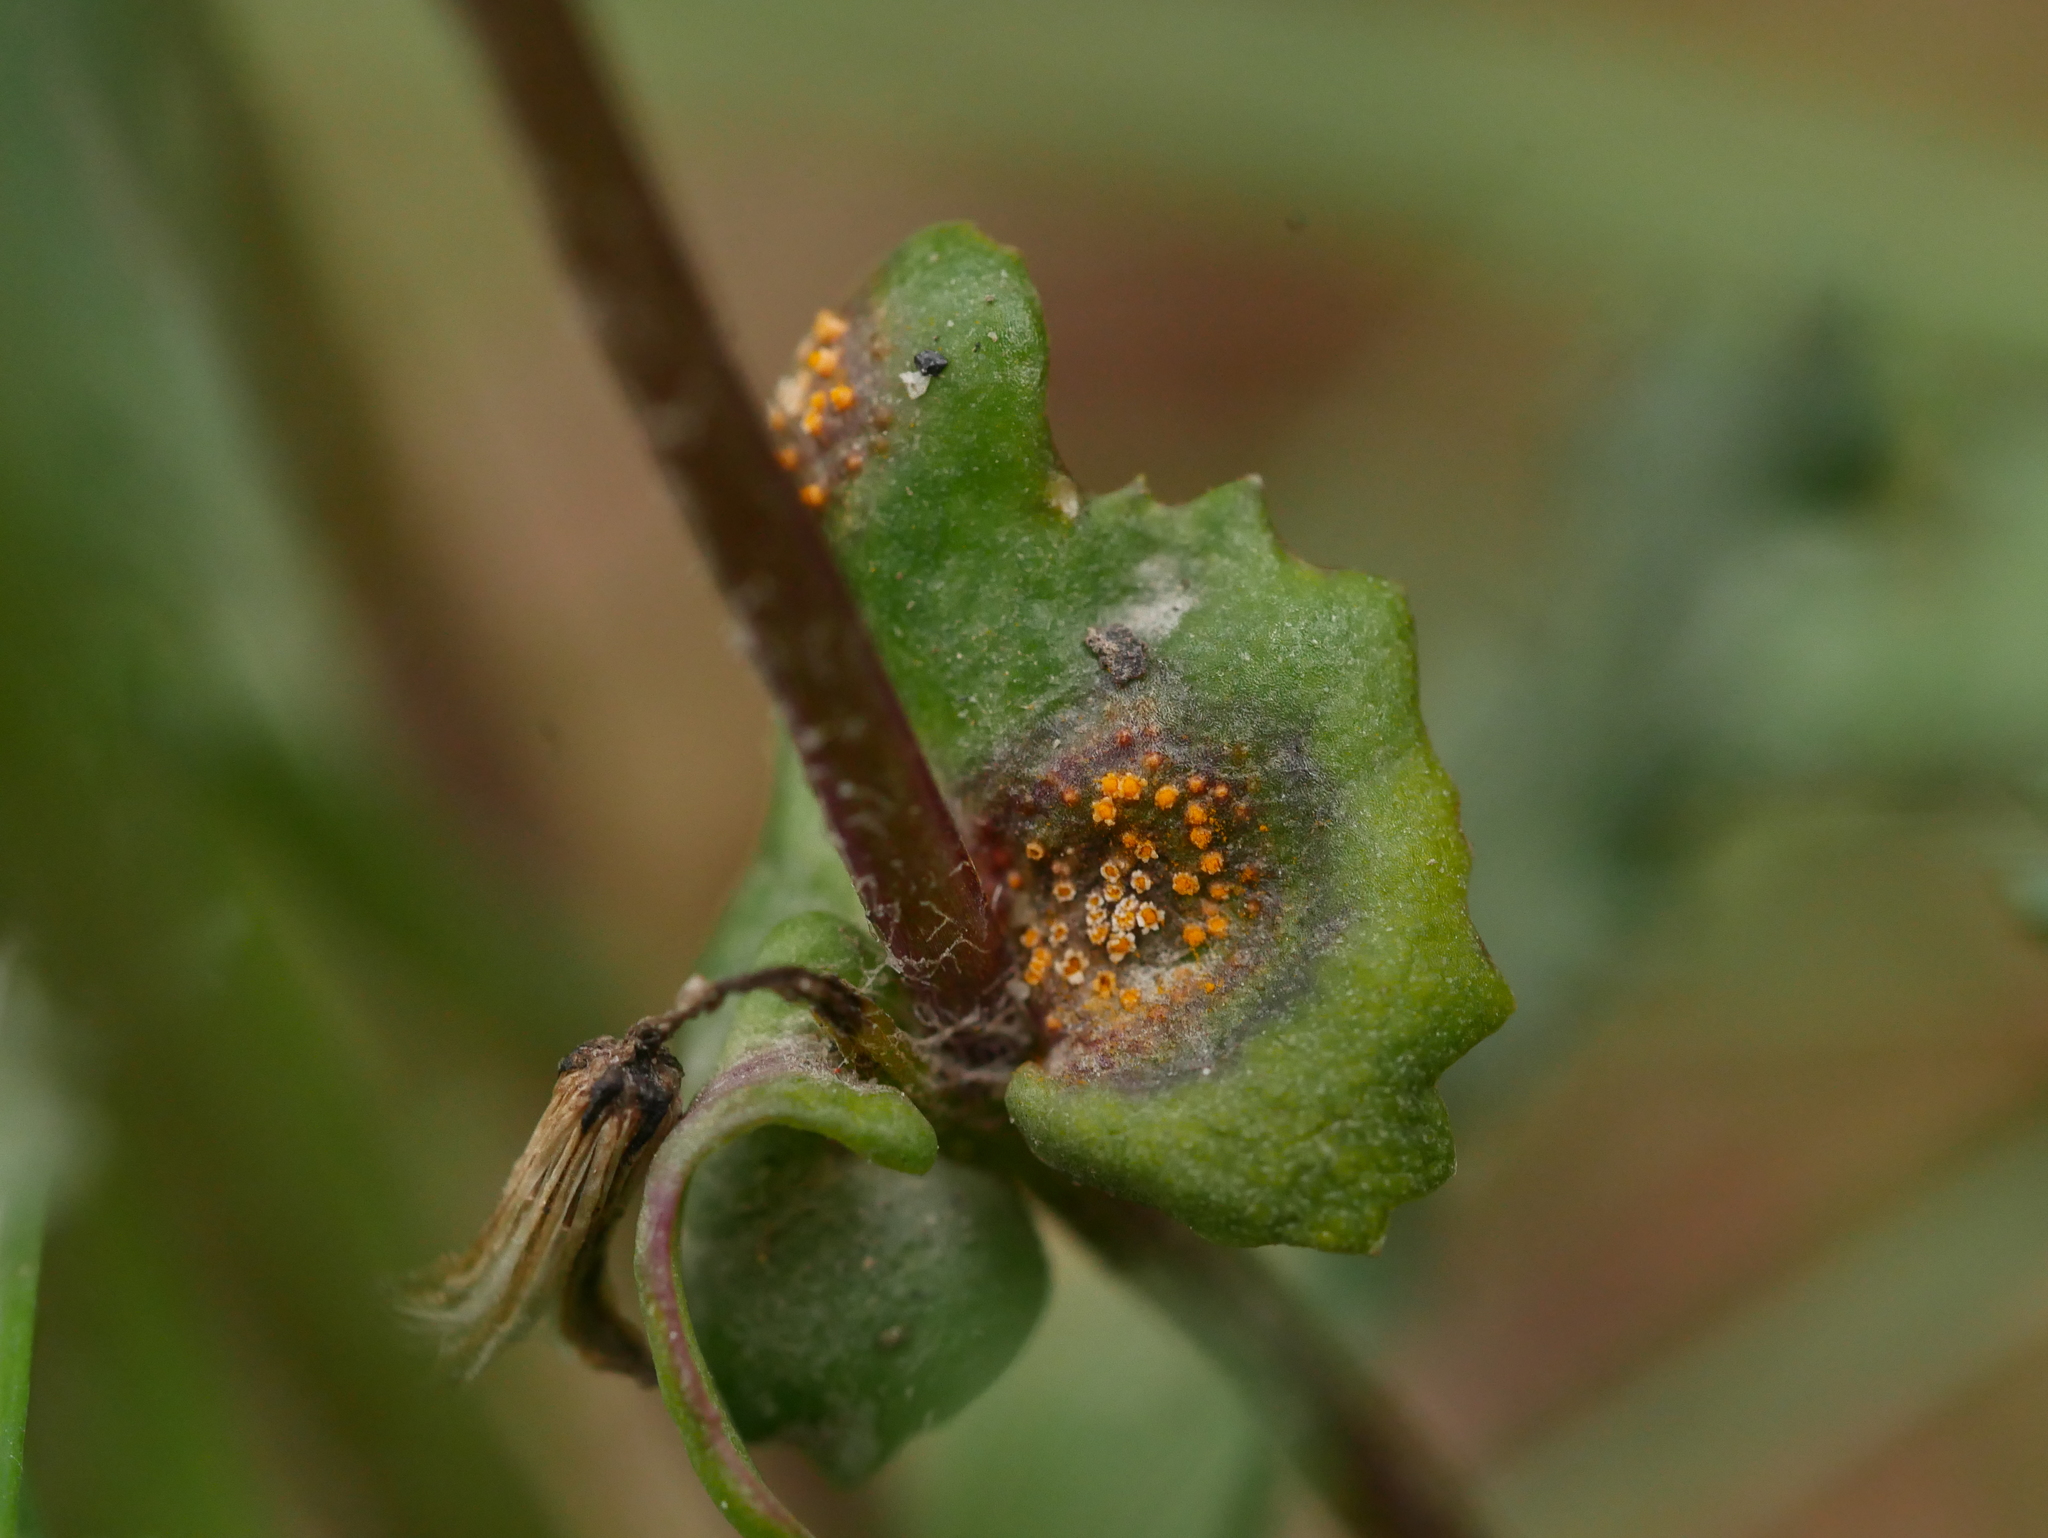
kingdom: Fungi
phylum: Basidiomycota
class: Pucciniomycetes
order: Pucciniales
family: Pucciniaceae
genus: Puccinia
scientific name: Puccinia lagenophorae
